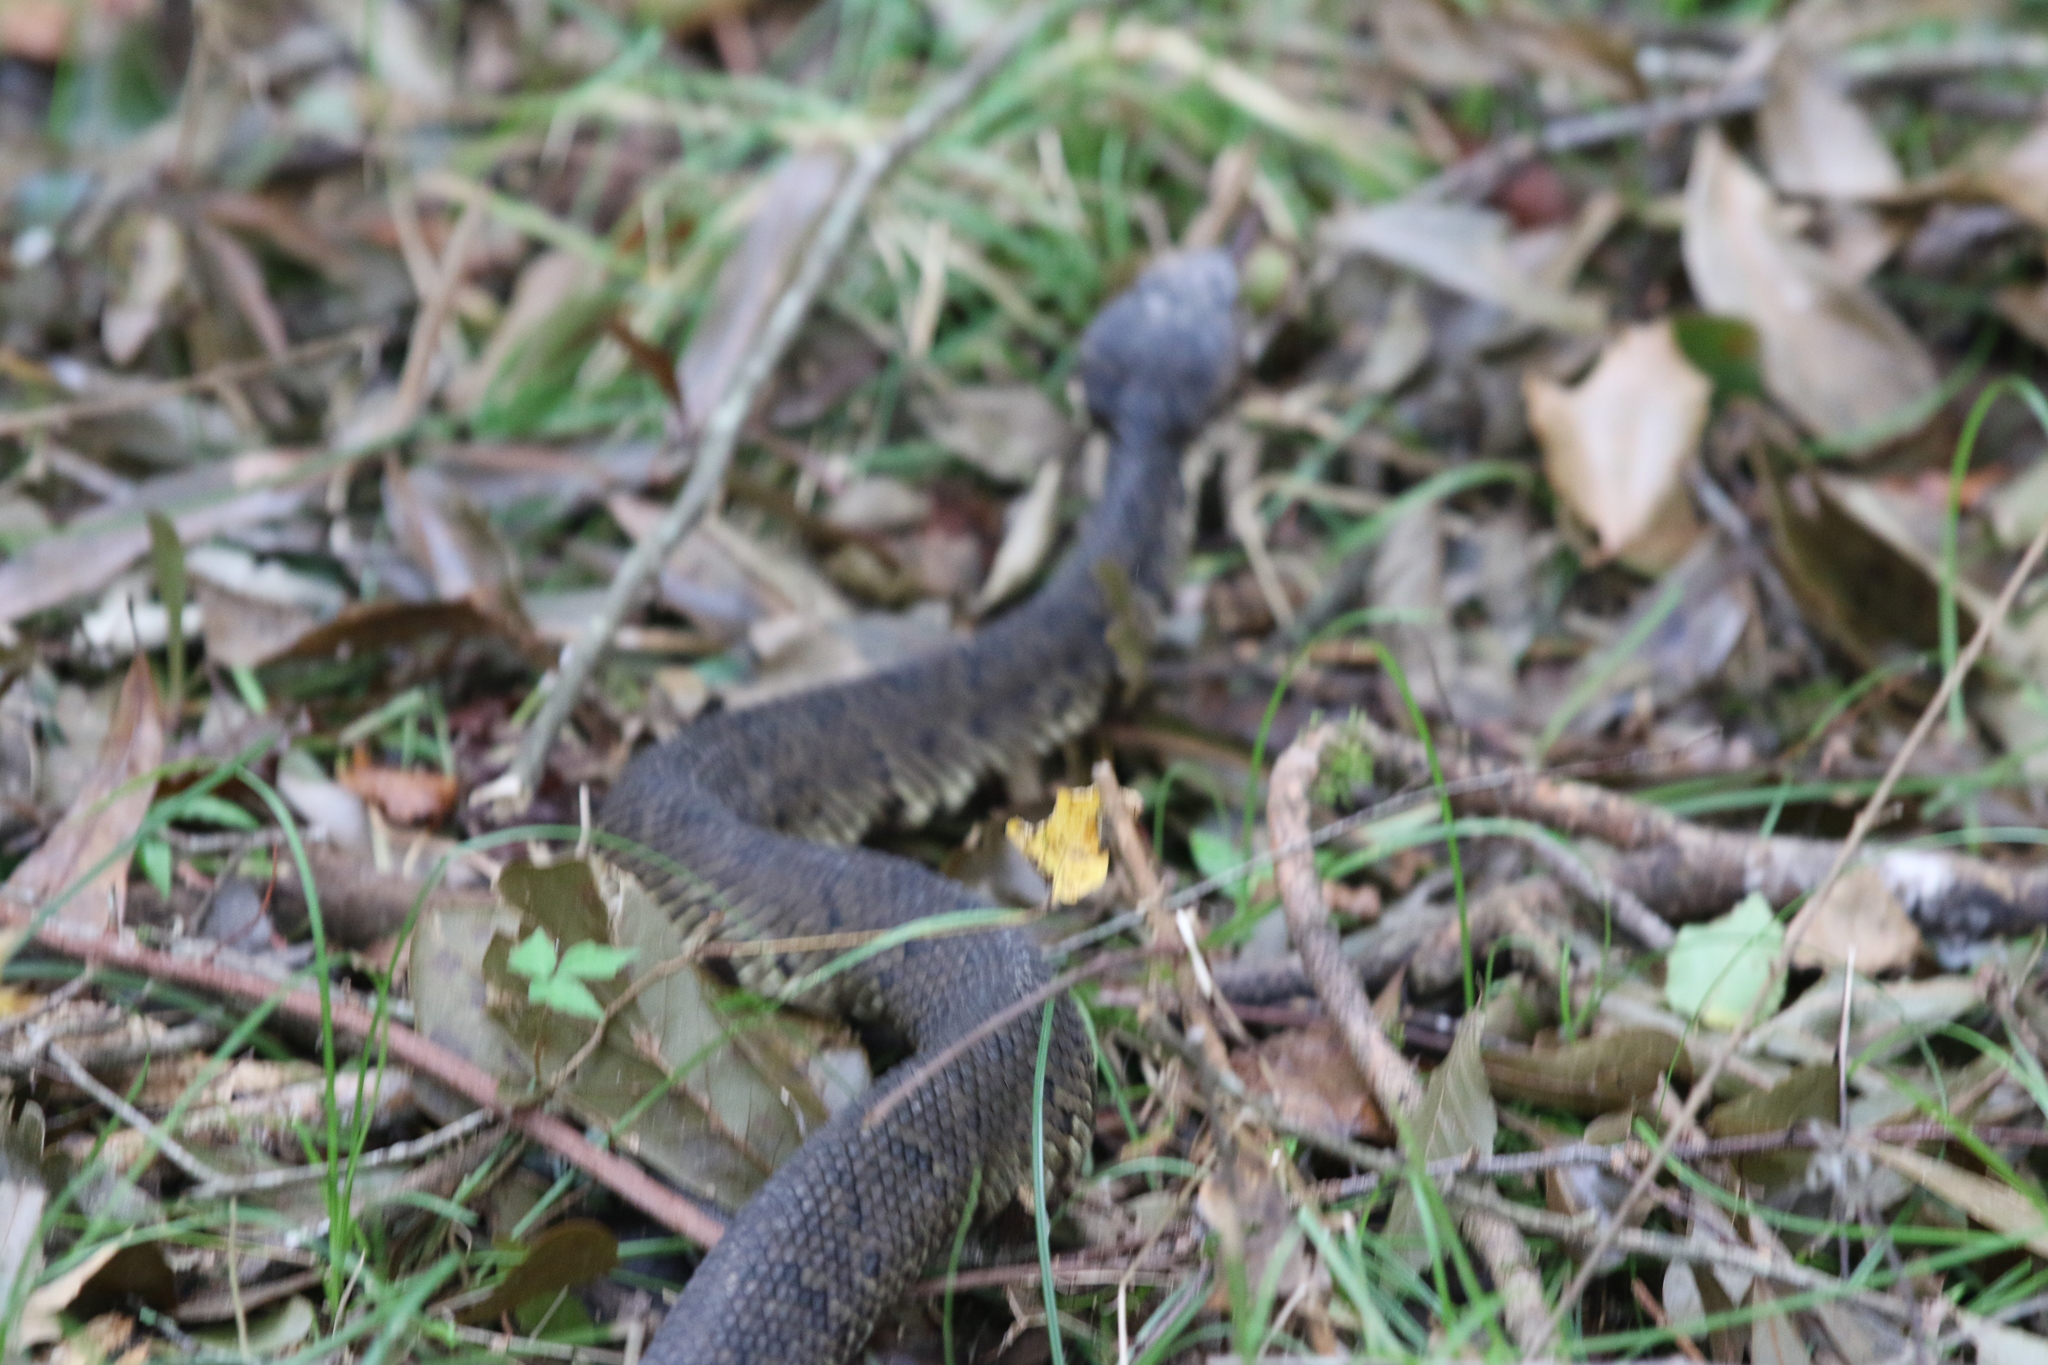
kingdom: Animalia
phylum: Chordata
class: Squamata
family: Viperidae
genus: Agkistrodon
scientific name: Agkistrodon piscivorus
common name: Cottonmouth
